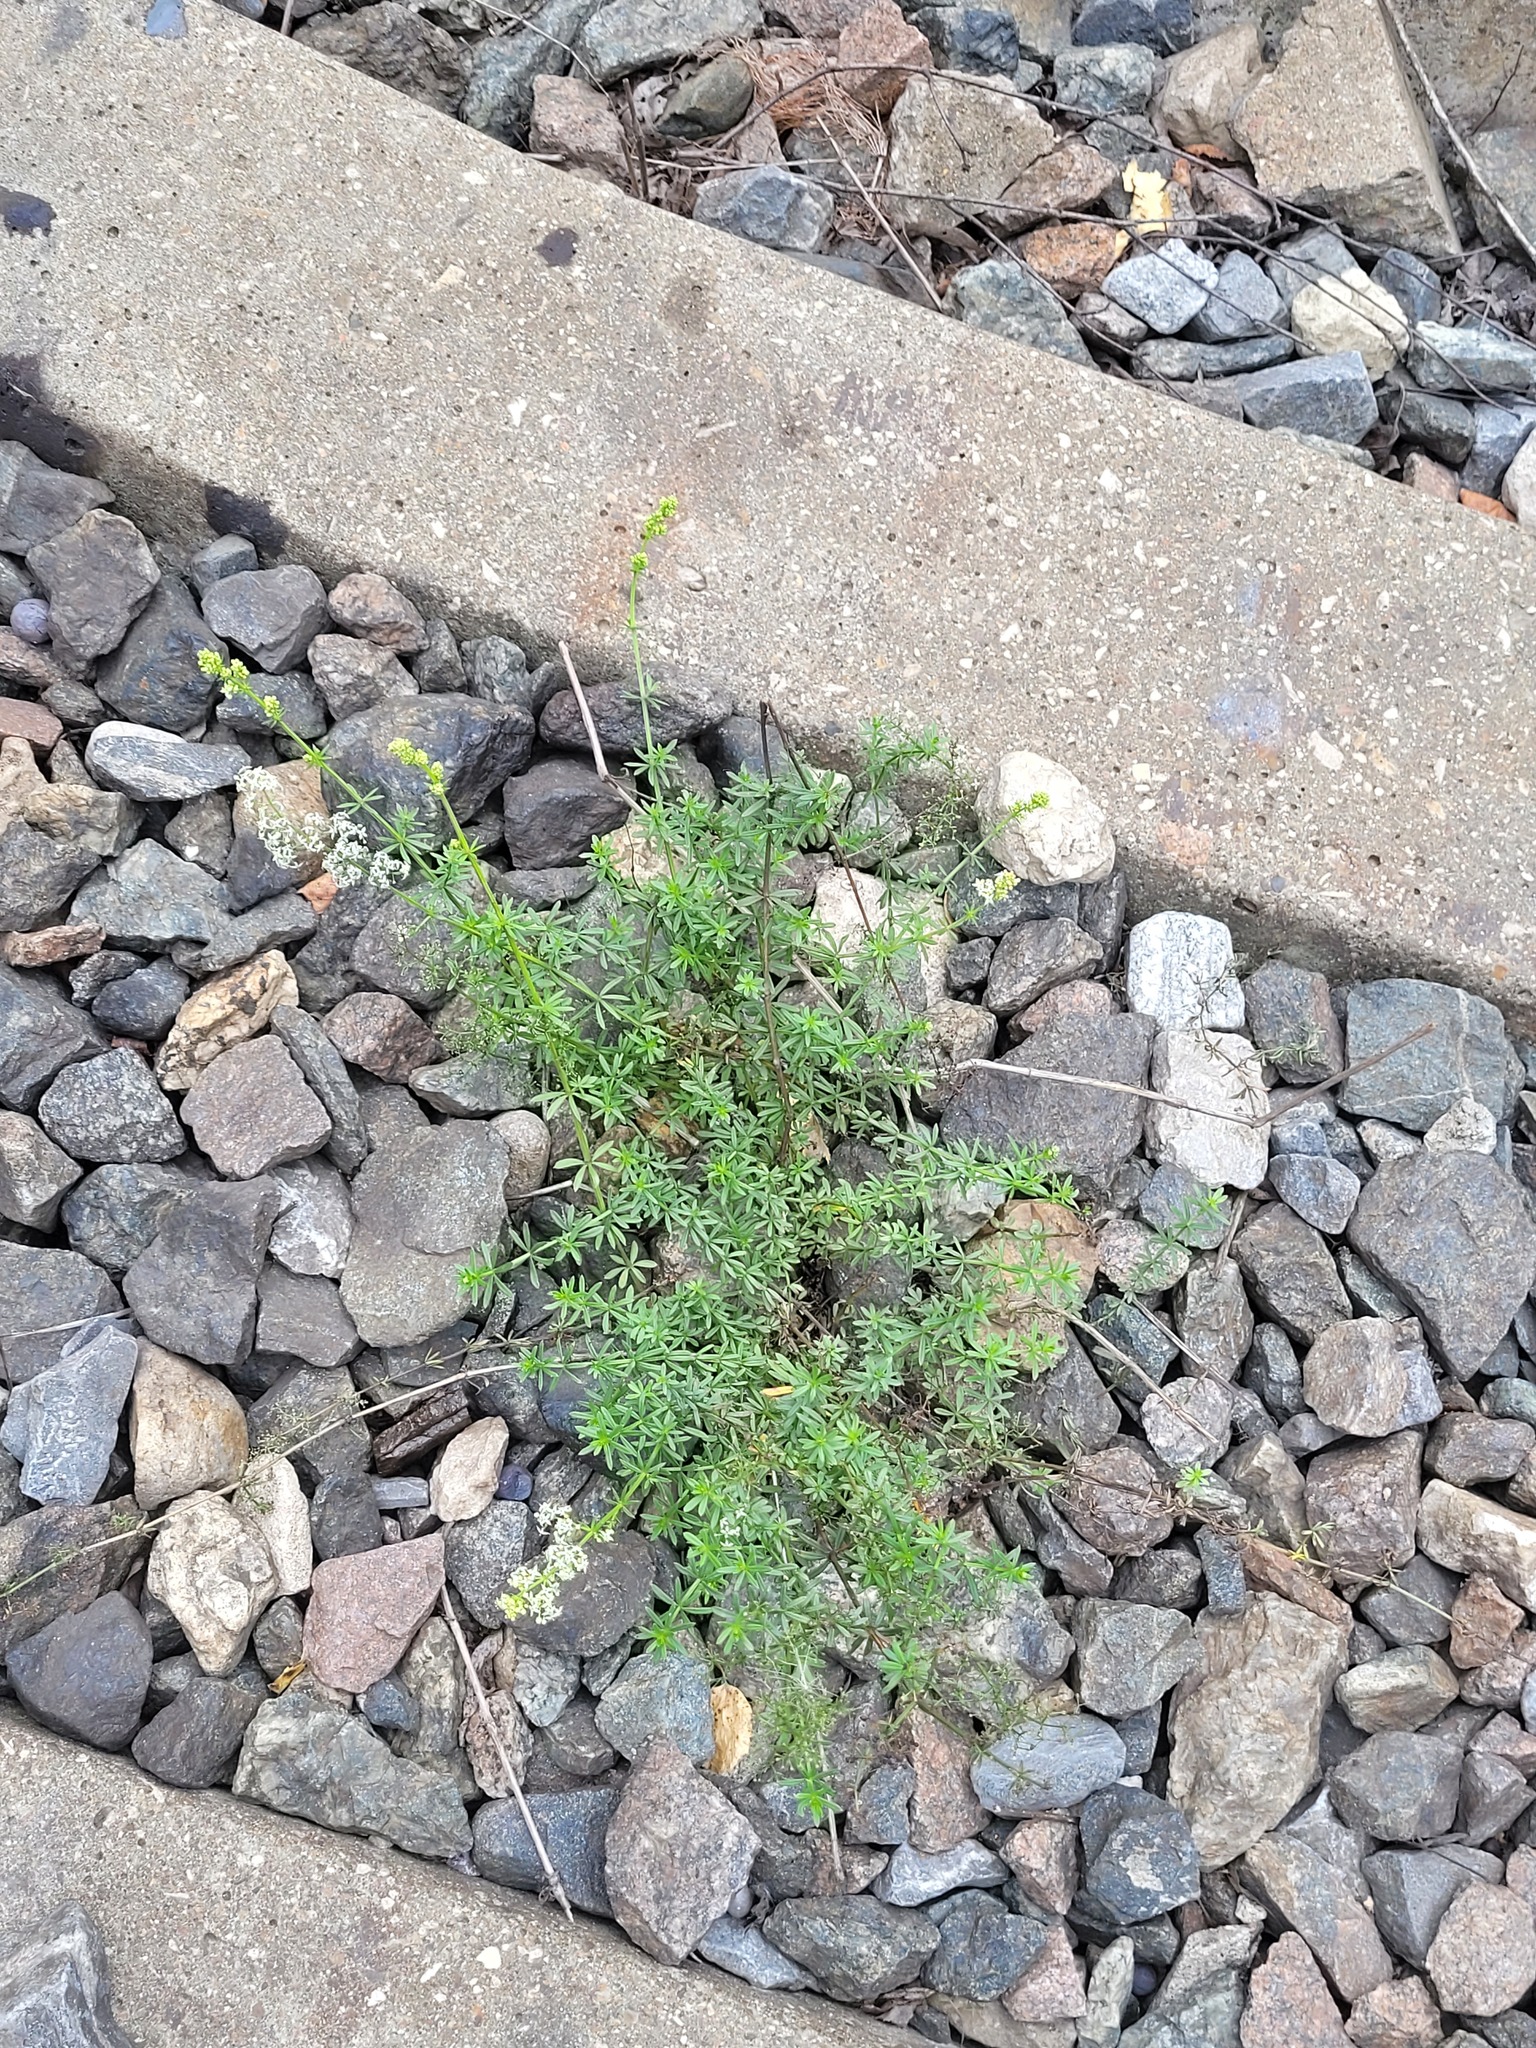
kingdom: Plantae
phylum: Tracheophyta
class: Magnoliopsida
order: Gentianales
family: Rubiaceae
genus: Galium
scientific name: Galium mollugo
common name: Hedge bedstraw
